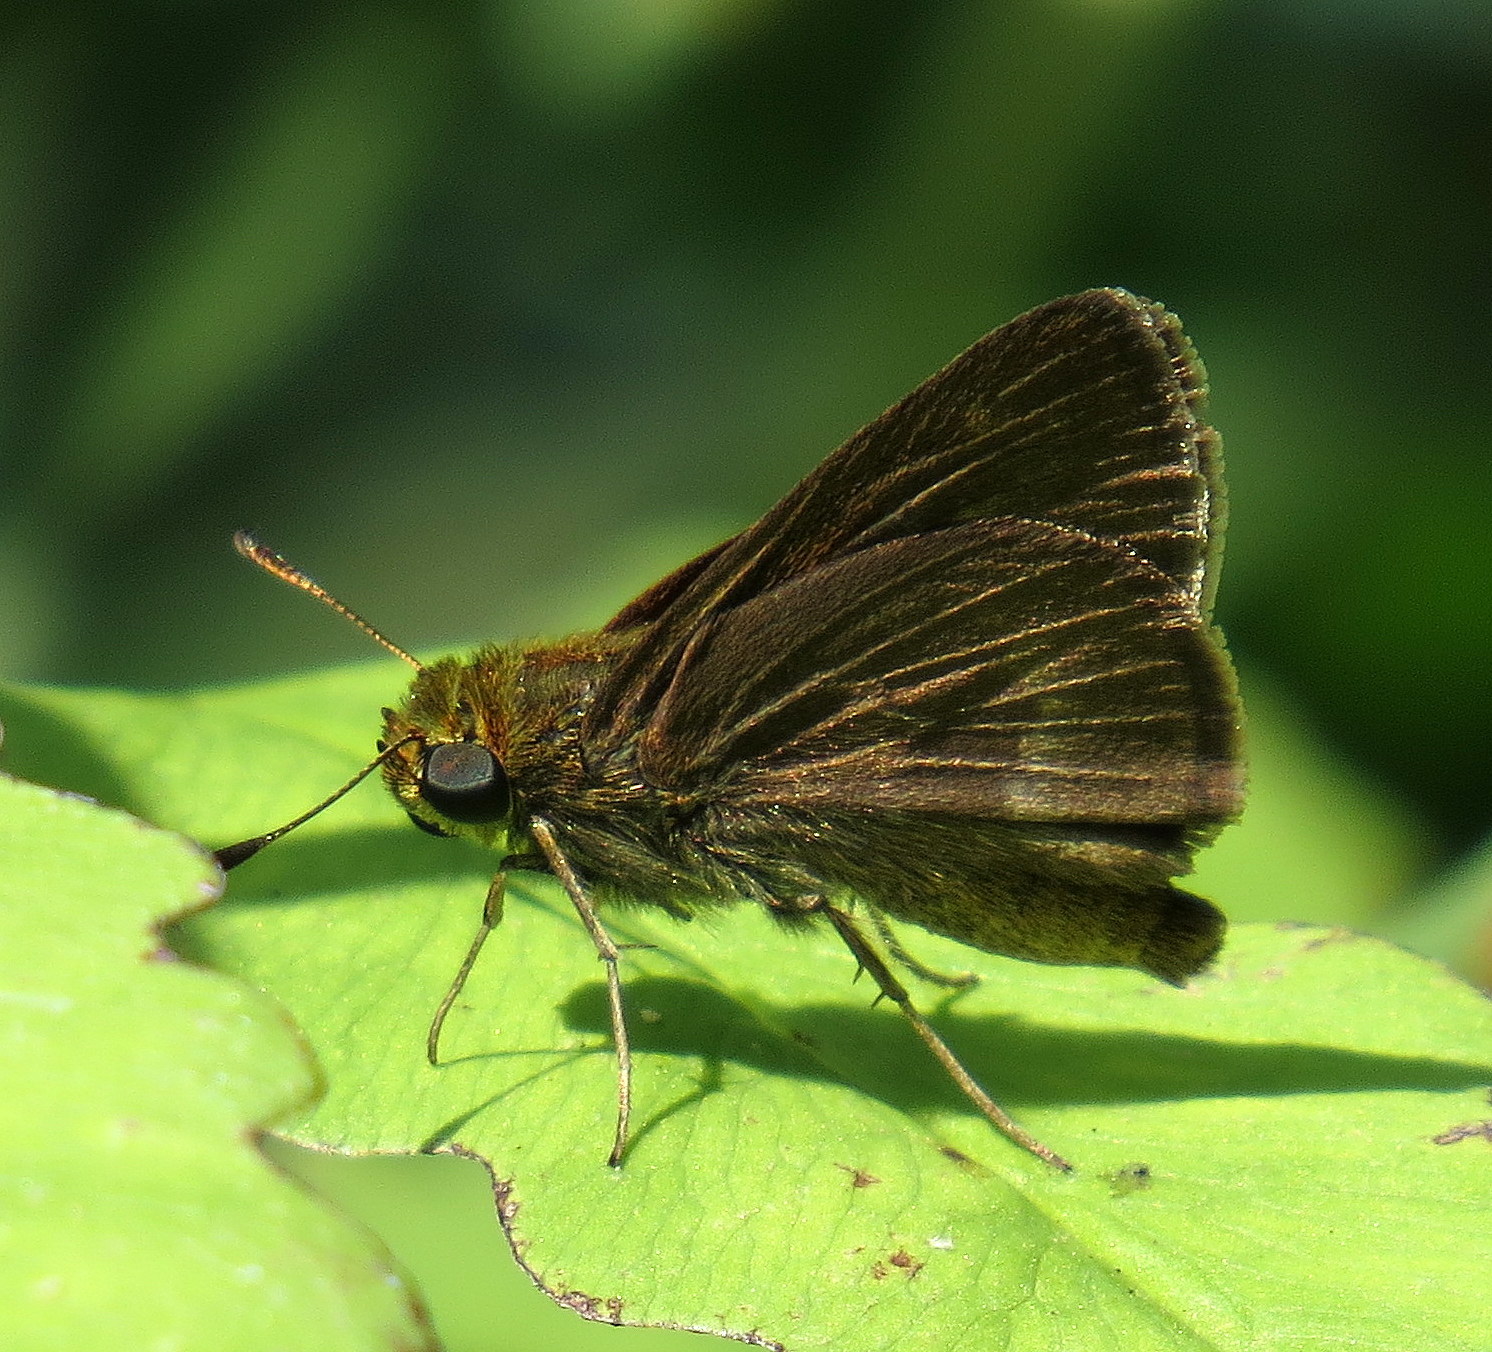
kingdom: Animalia
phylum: Arthropoda
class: Insecta
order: Lepidoptera
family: Hesperiidae
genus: Euphyes
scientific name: Euphyes vestris
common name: Dun skipper
